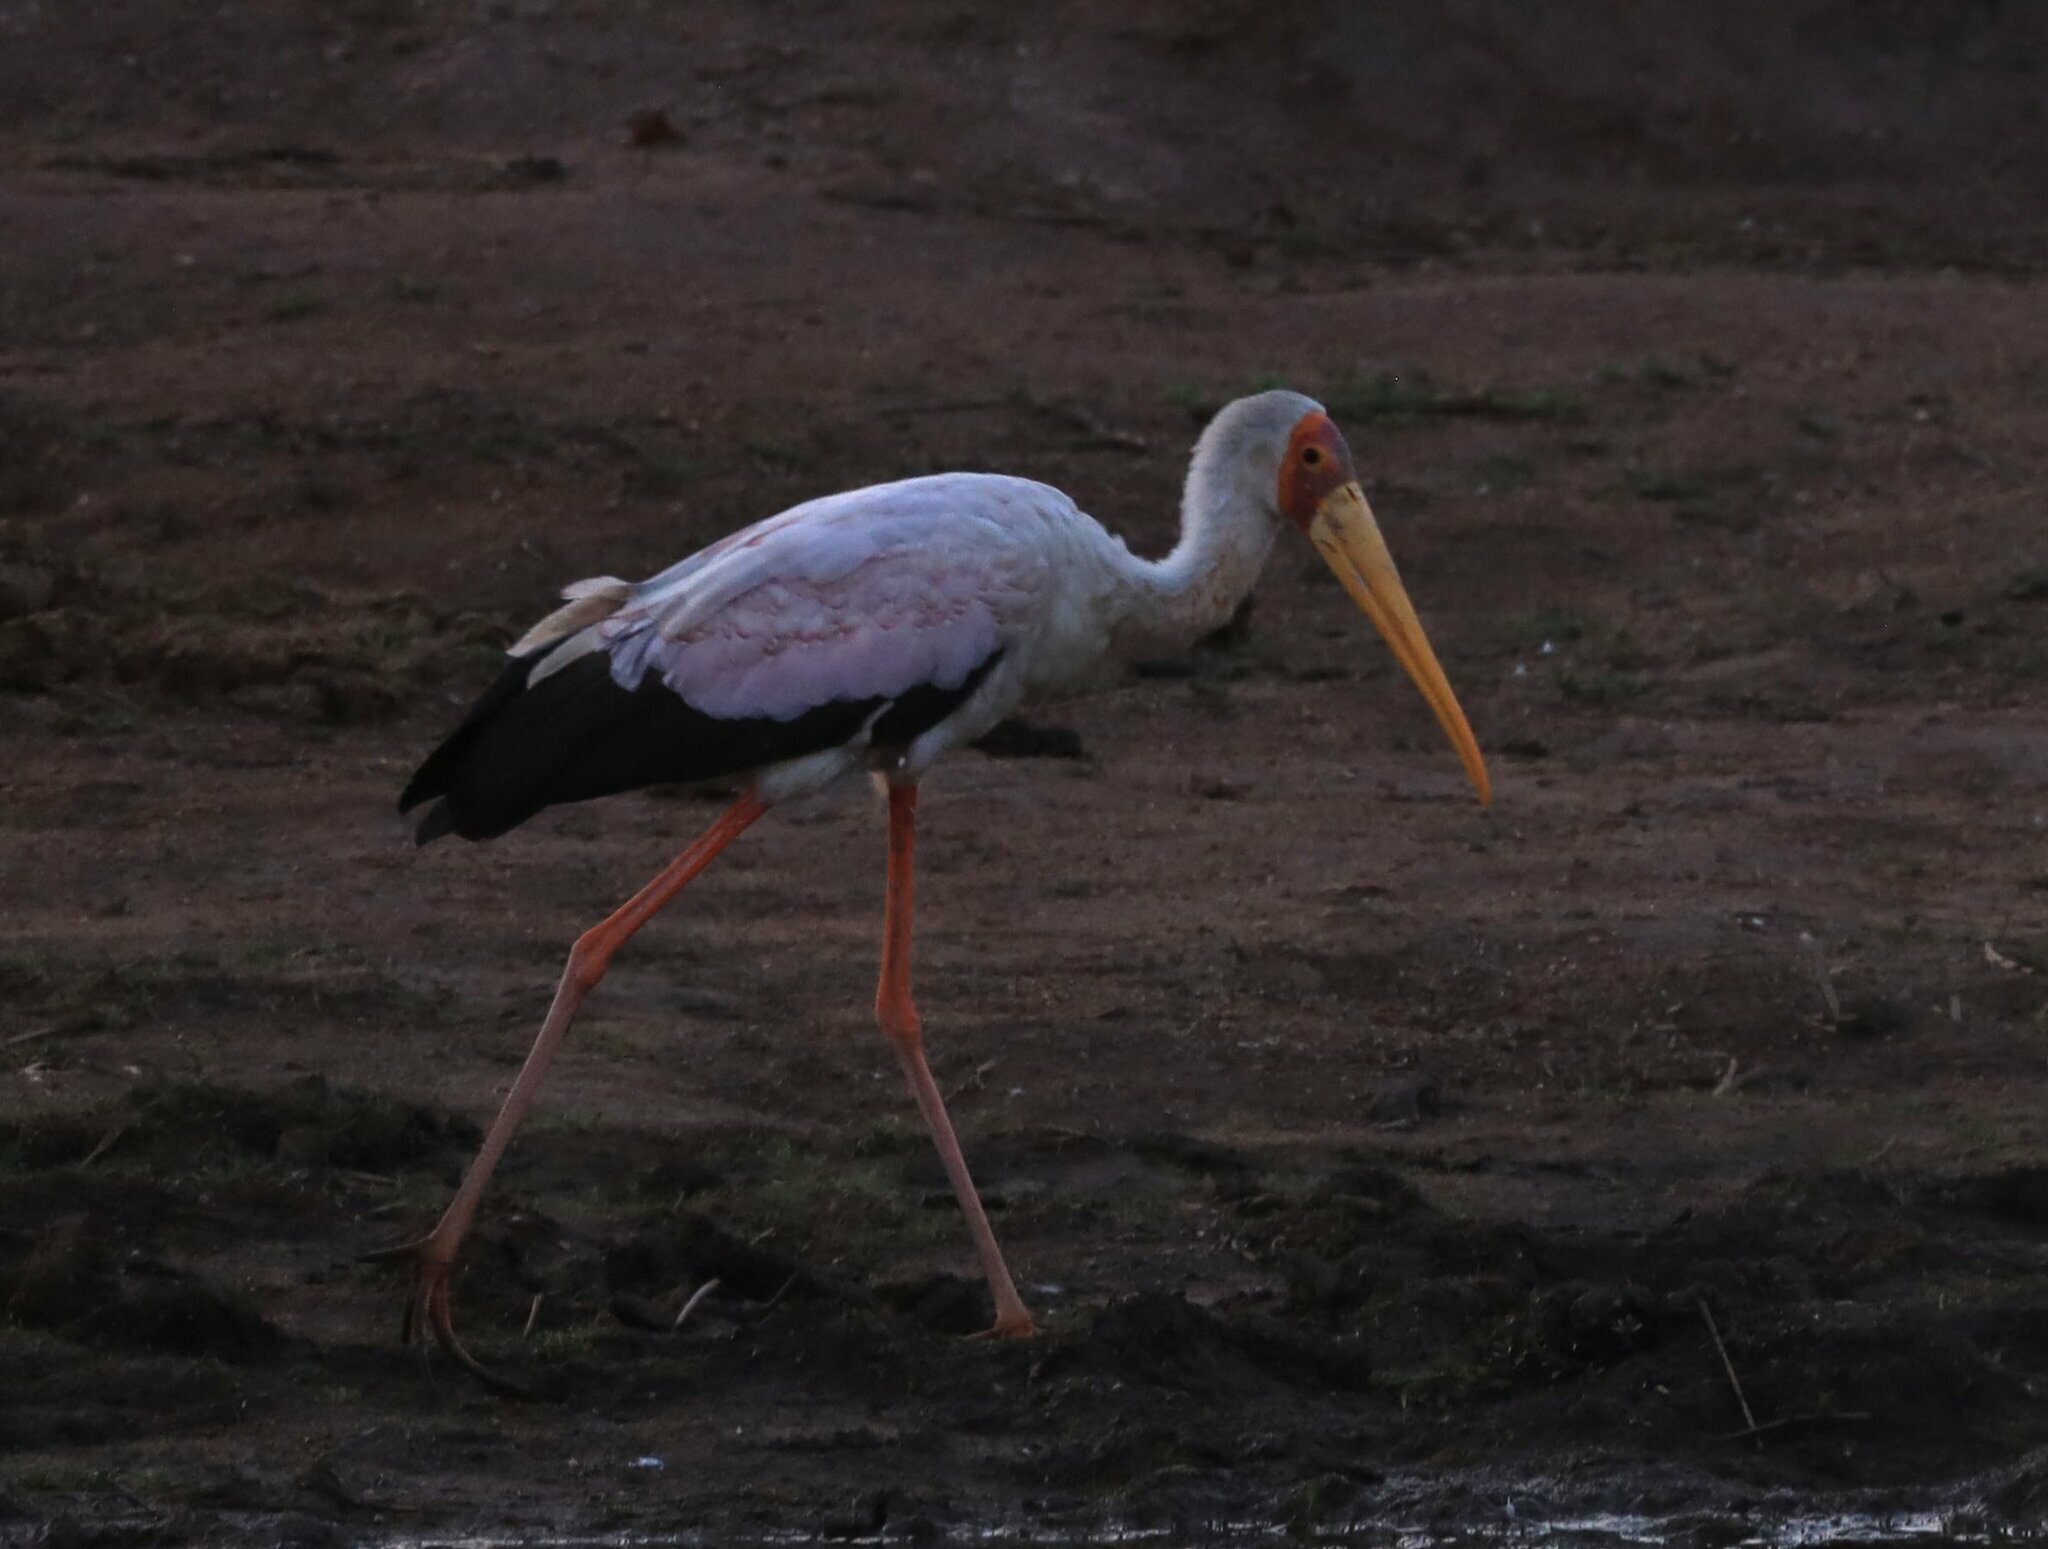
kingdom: Animalia
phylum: Chordata
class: Aves
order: Ciconiiformes
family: Ciconiidae
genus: Mycteria
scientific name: Mycteria ibis
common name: Yellow-billed stork
